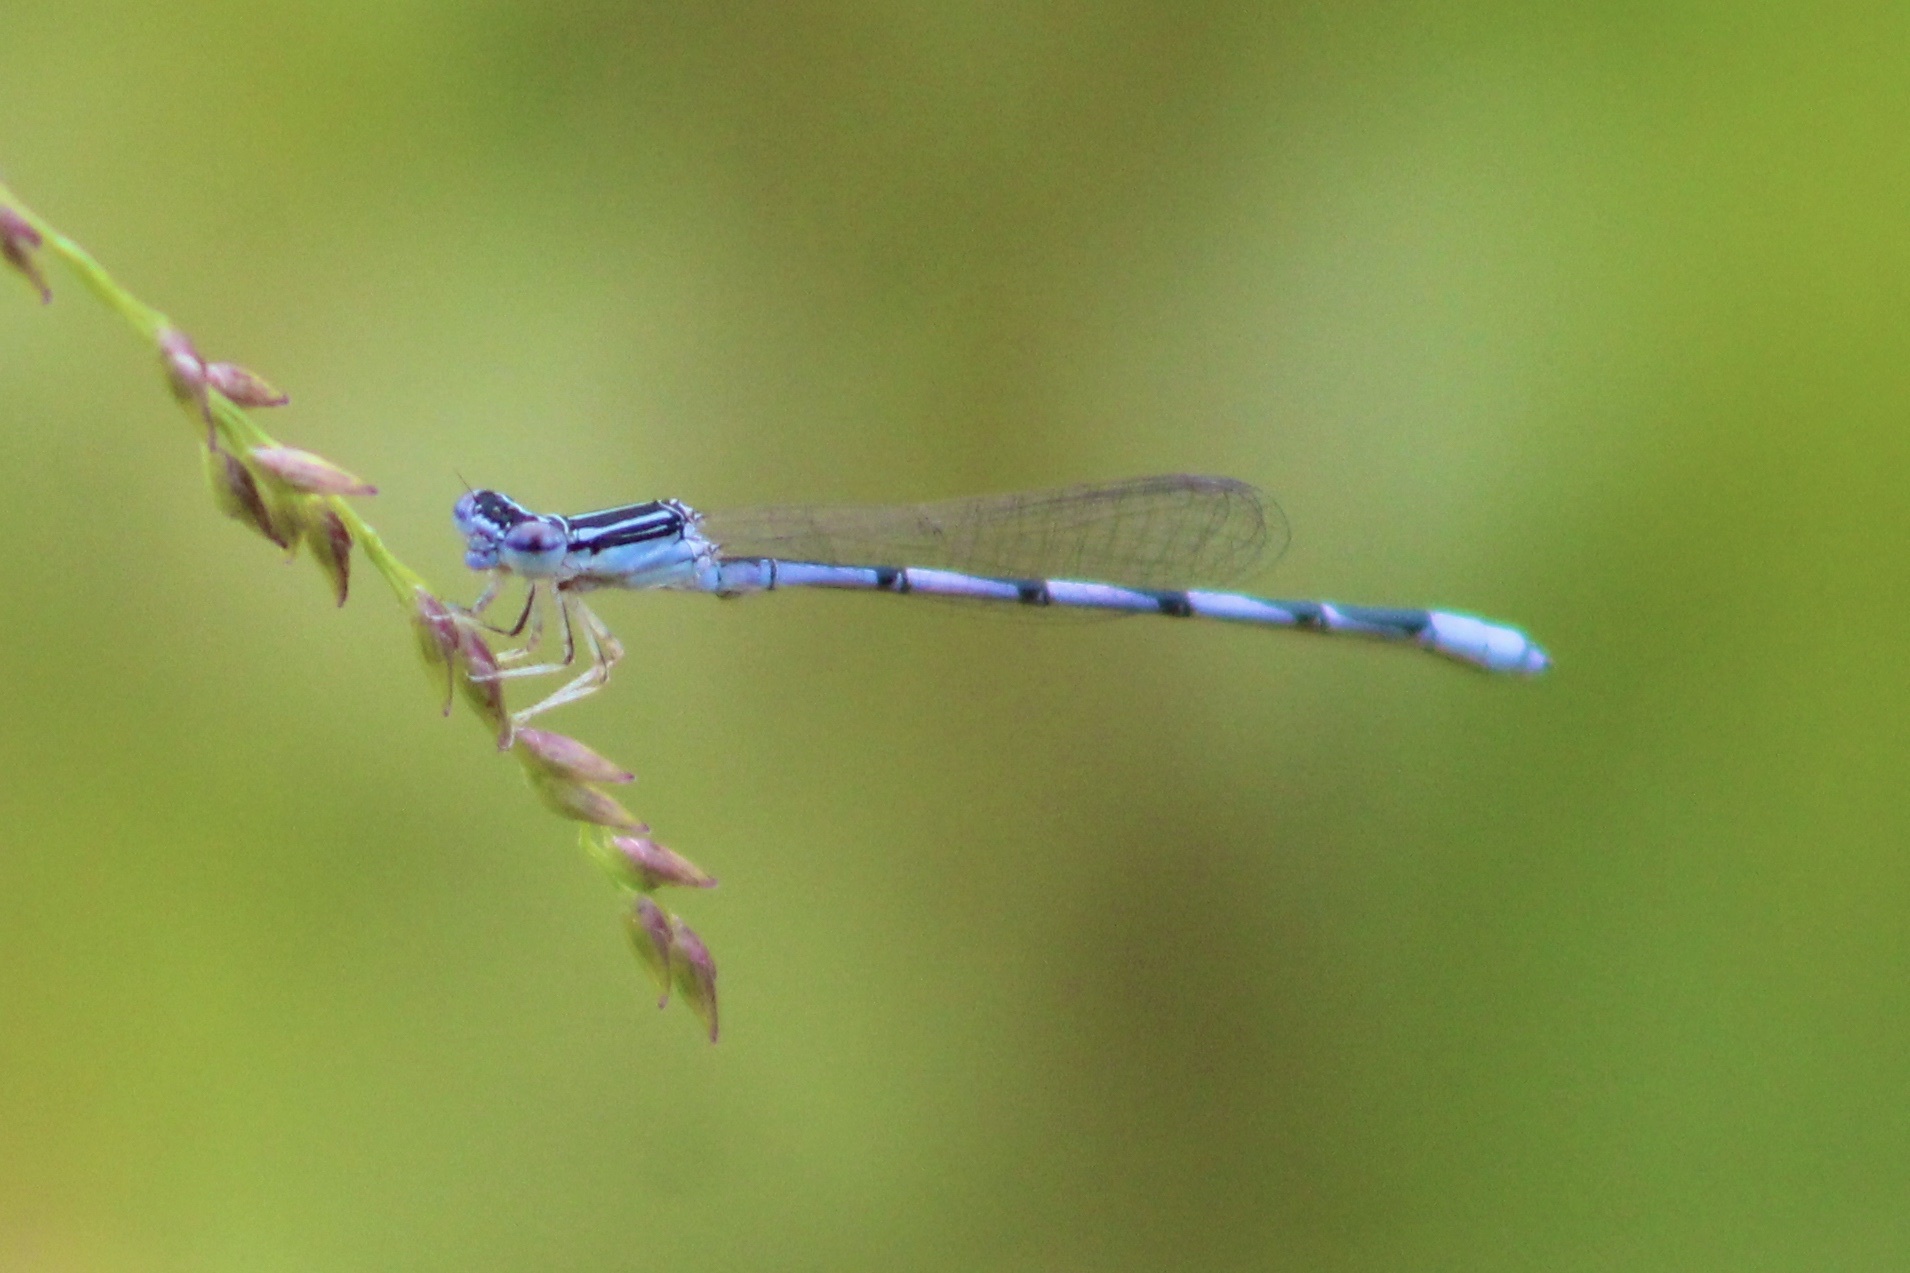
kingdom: Animalia
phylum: Arthropoda
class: Insecta
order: Odonata
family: Coenagrionidae
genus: Enallagma
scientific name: Enallagma basidens
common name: Double-striped bluet
